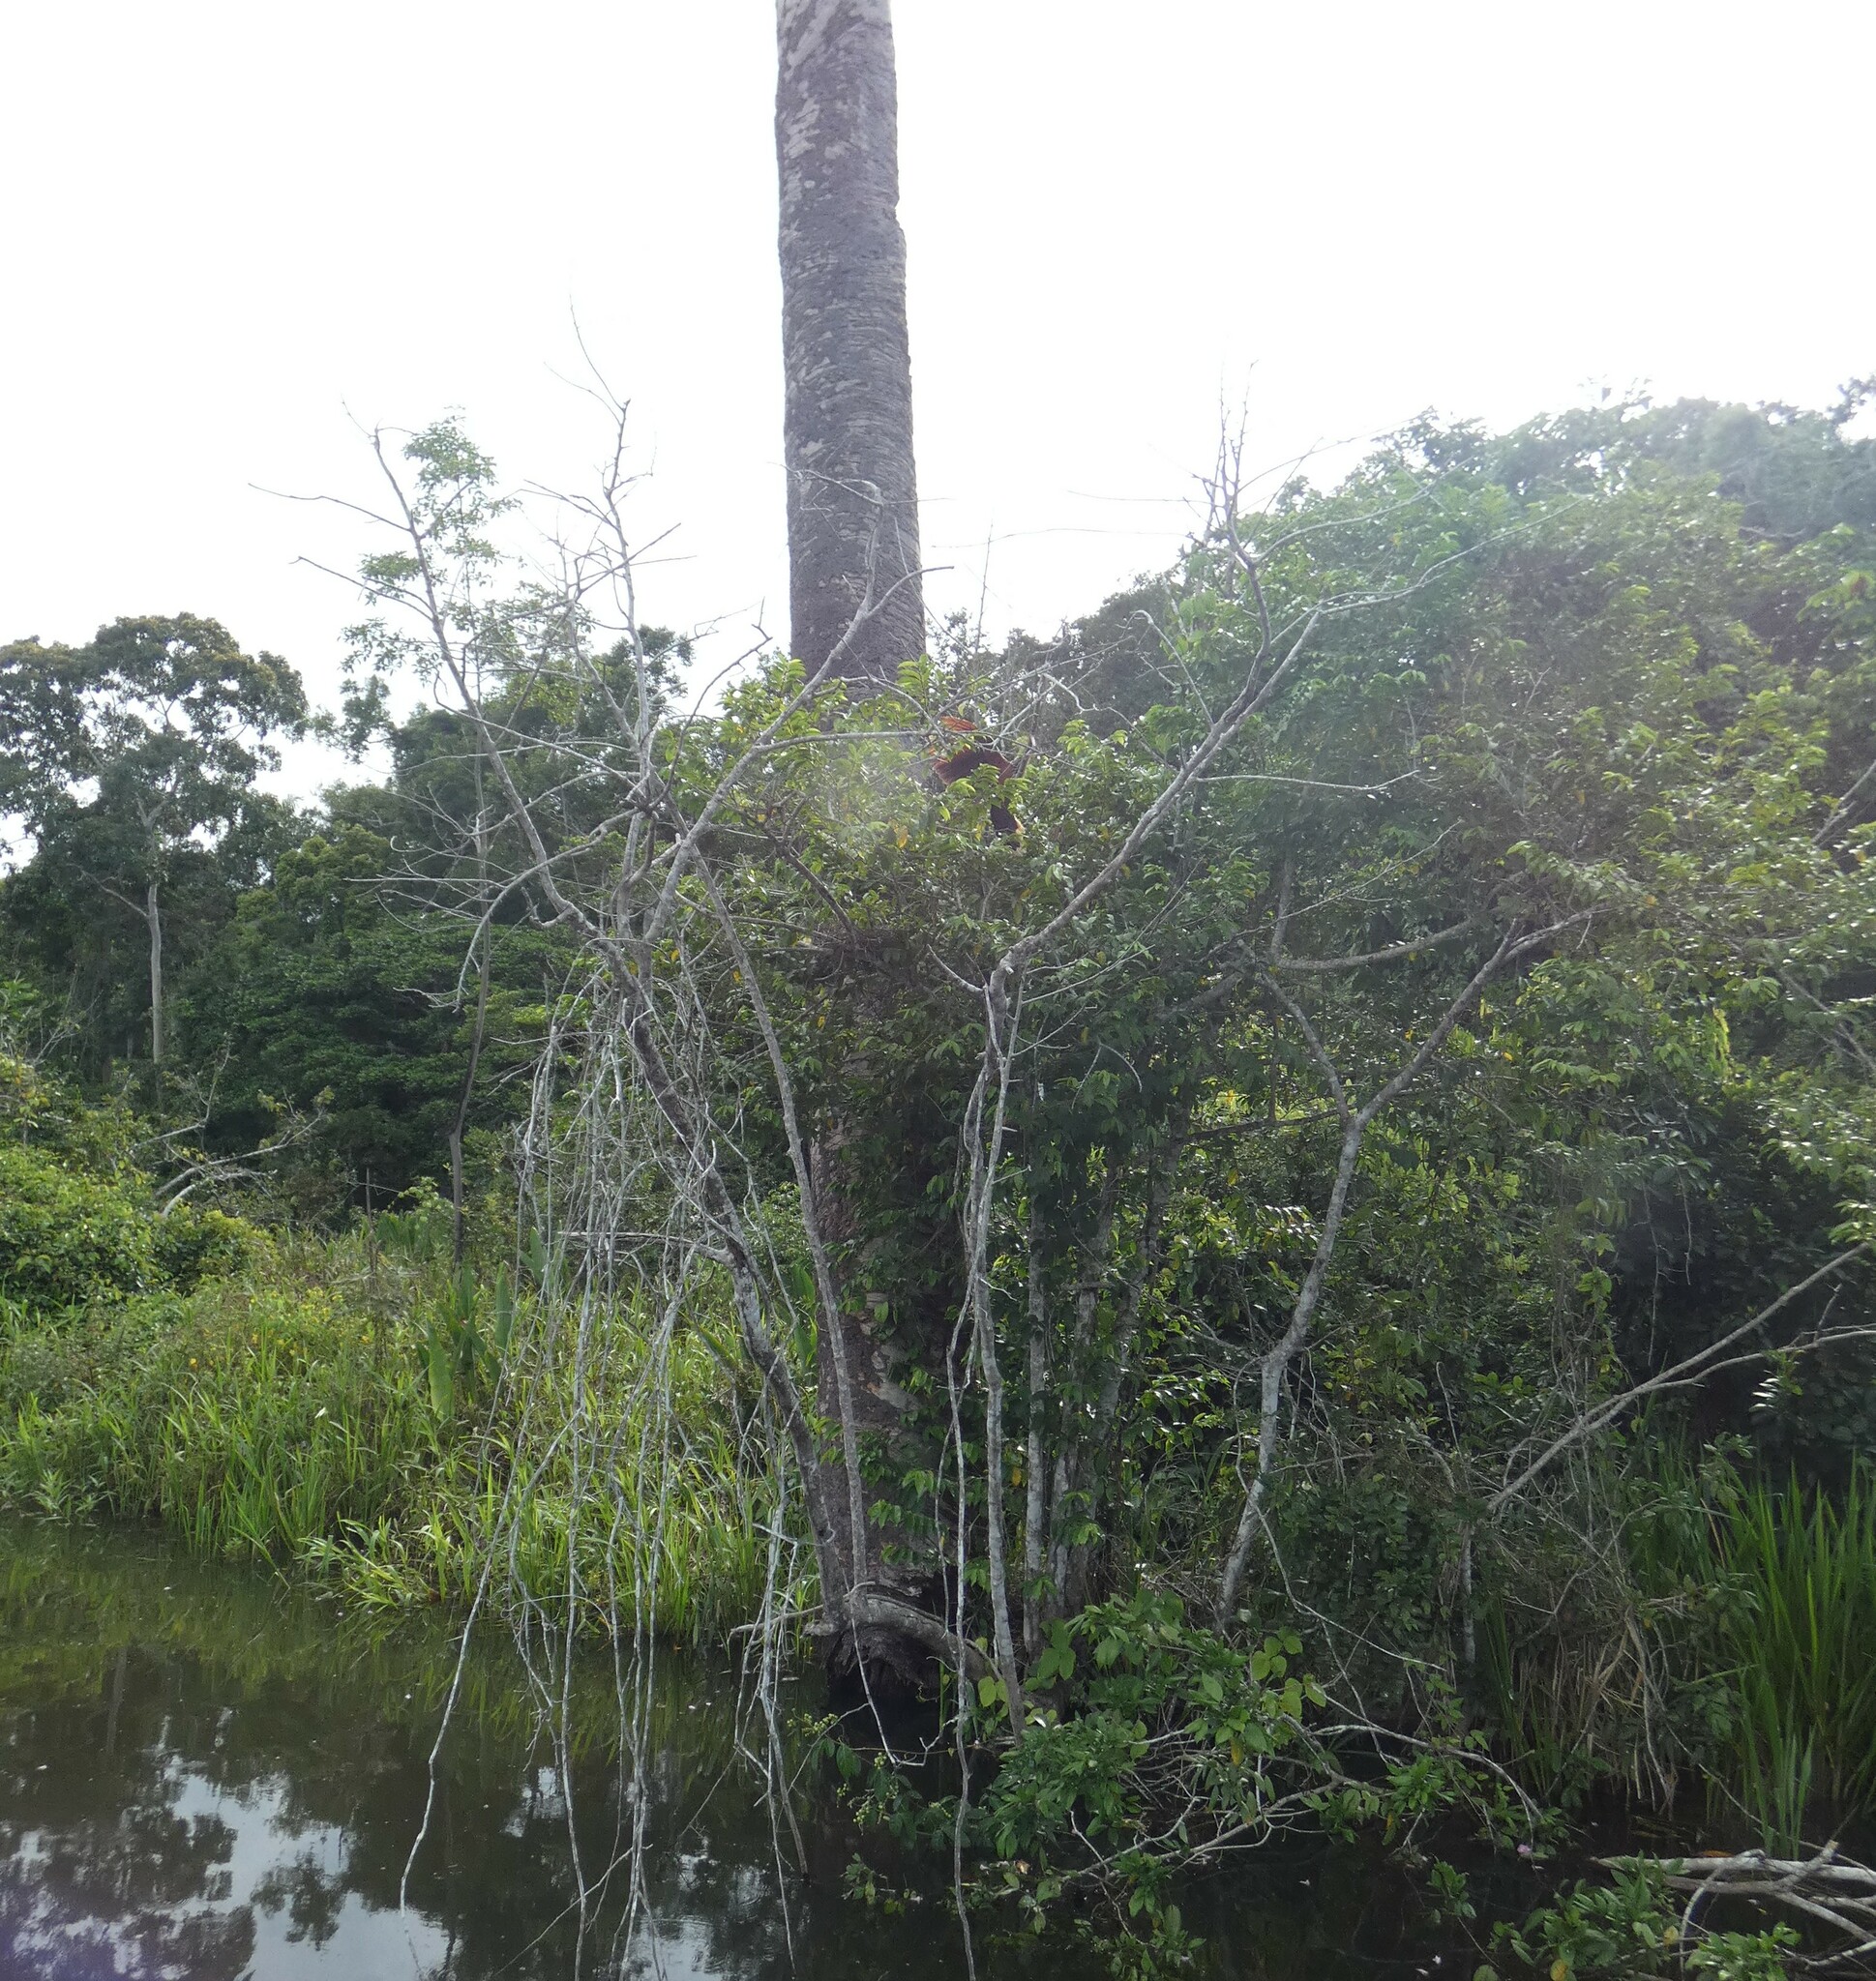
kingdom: Animalia
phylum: Chordata
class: Aves
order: Opisthocomiformes
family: Opisthocomidae
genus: Opisthocomus
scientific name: Opisthocomus hoazin
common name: Hoatzin
